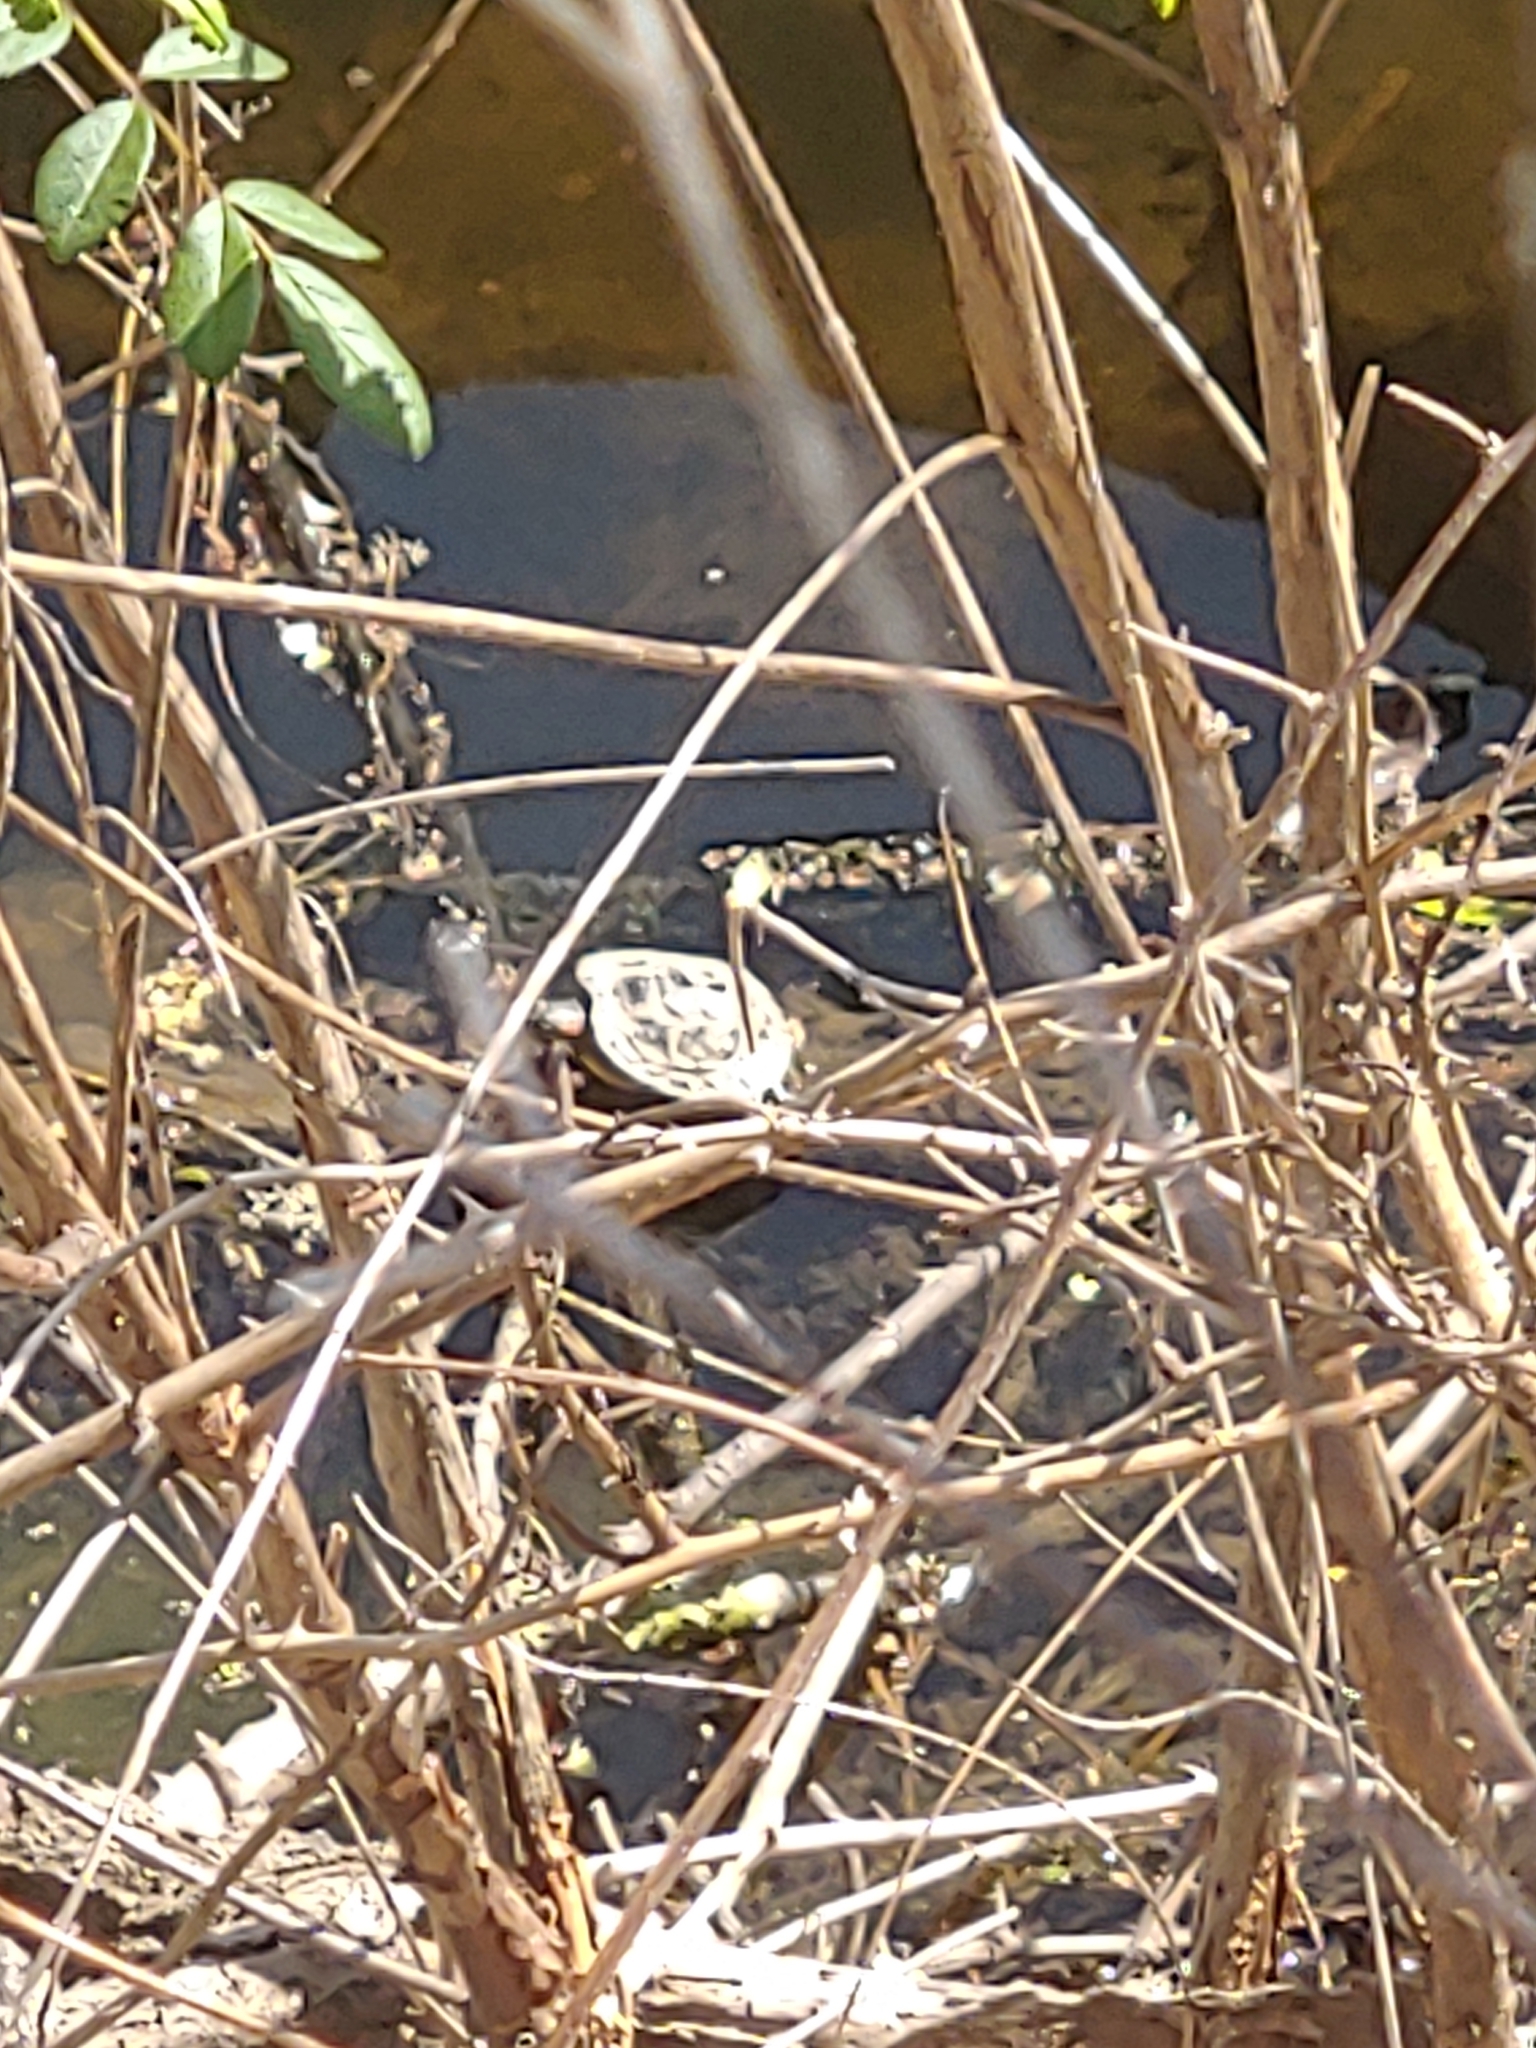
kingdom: Animalia
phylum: Chordata
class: Testudines
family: Emydidae
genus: Trachemys
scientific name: Trachemys scripta
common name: Slider
